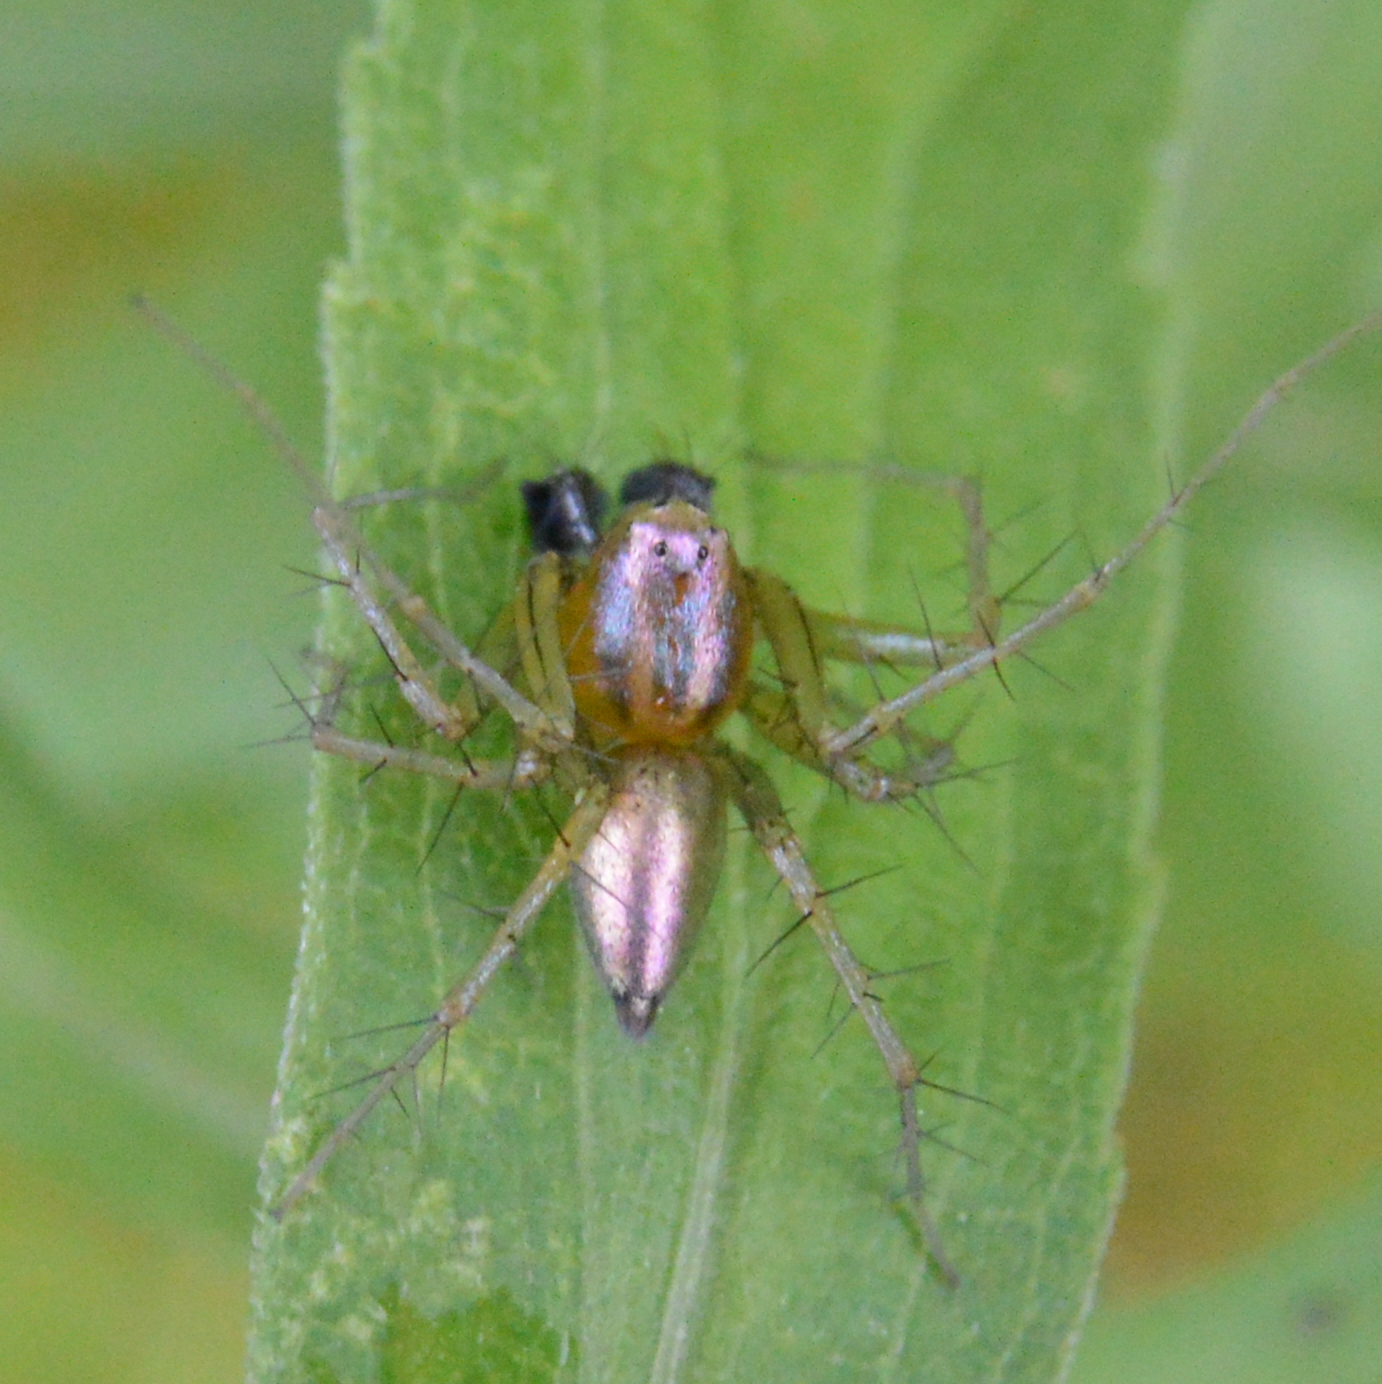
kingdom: Animalia
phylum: Arthropoda
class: Arachnida
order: Araneae
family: Oxyopidae
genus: Oxyopes
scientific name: Oxyopes salticus
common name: Lynx spiders
